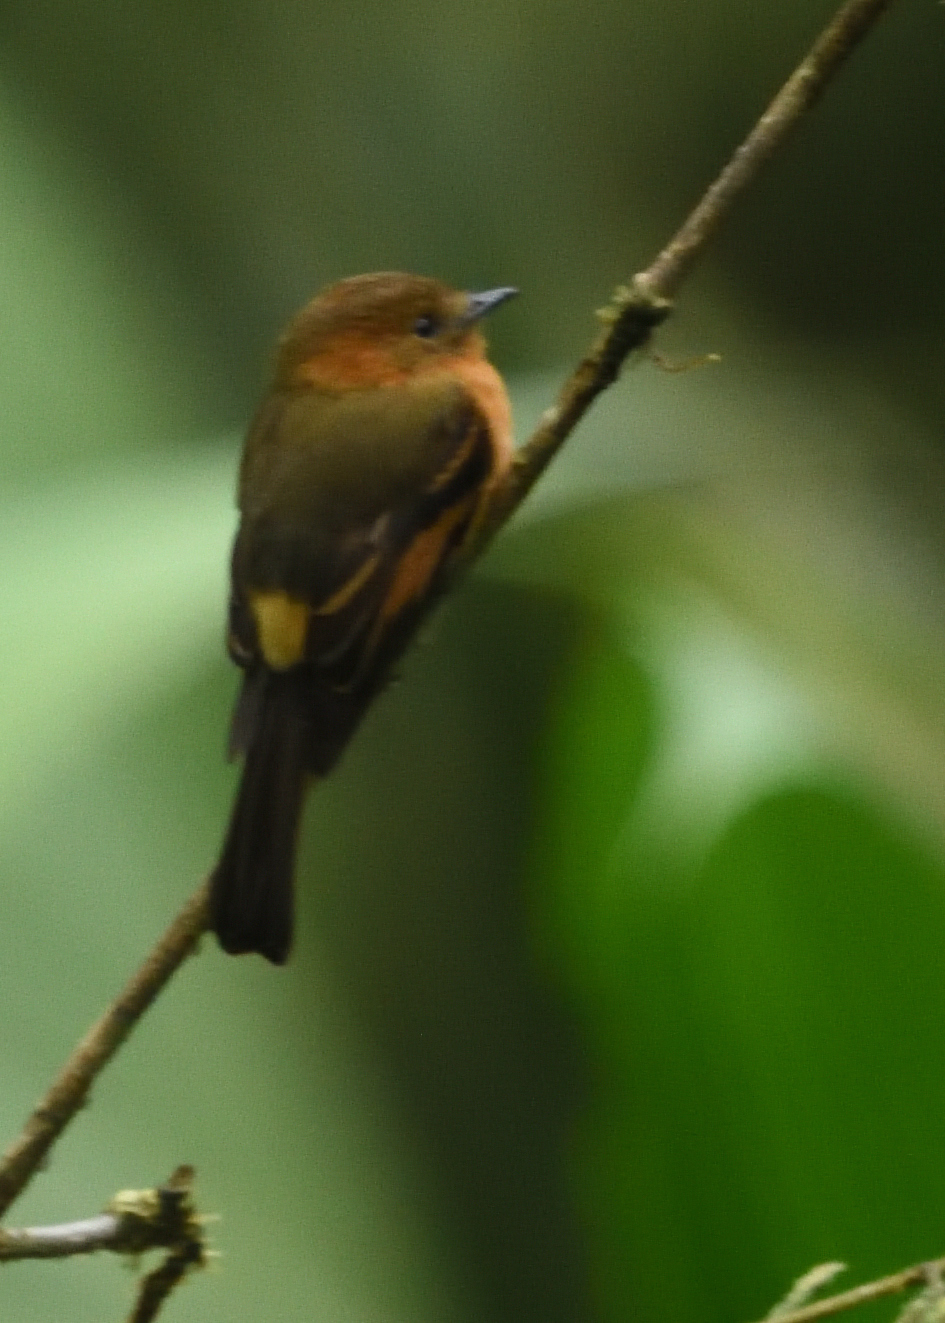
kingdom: Animalia
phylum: Chordata
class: Aves
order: Passeriformes
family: Tyrannidae
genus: Pyrrhomyias
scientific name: Pyrrhomyias cinnamomeus
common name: Cinnamon flycatcher
